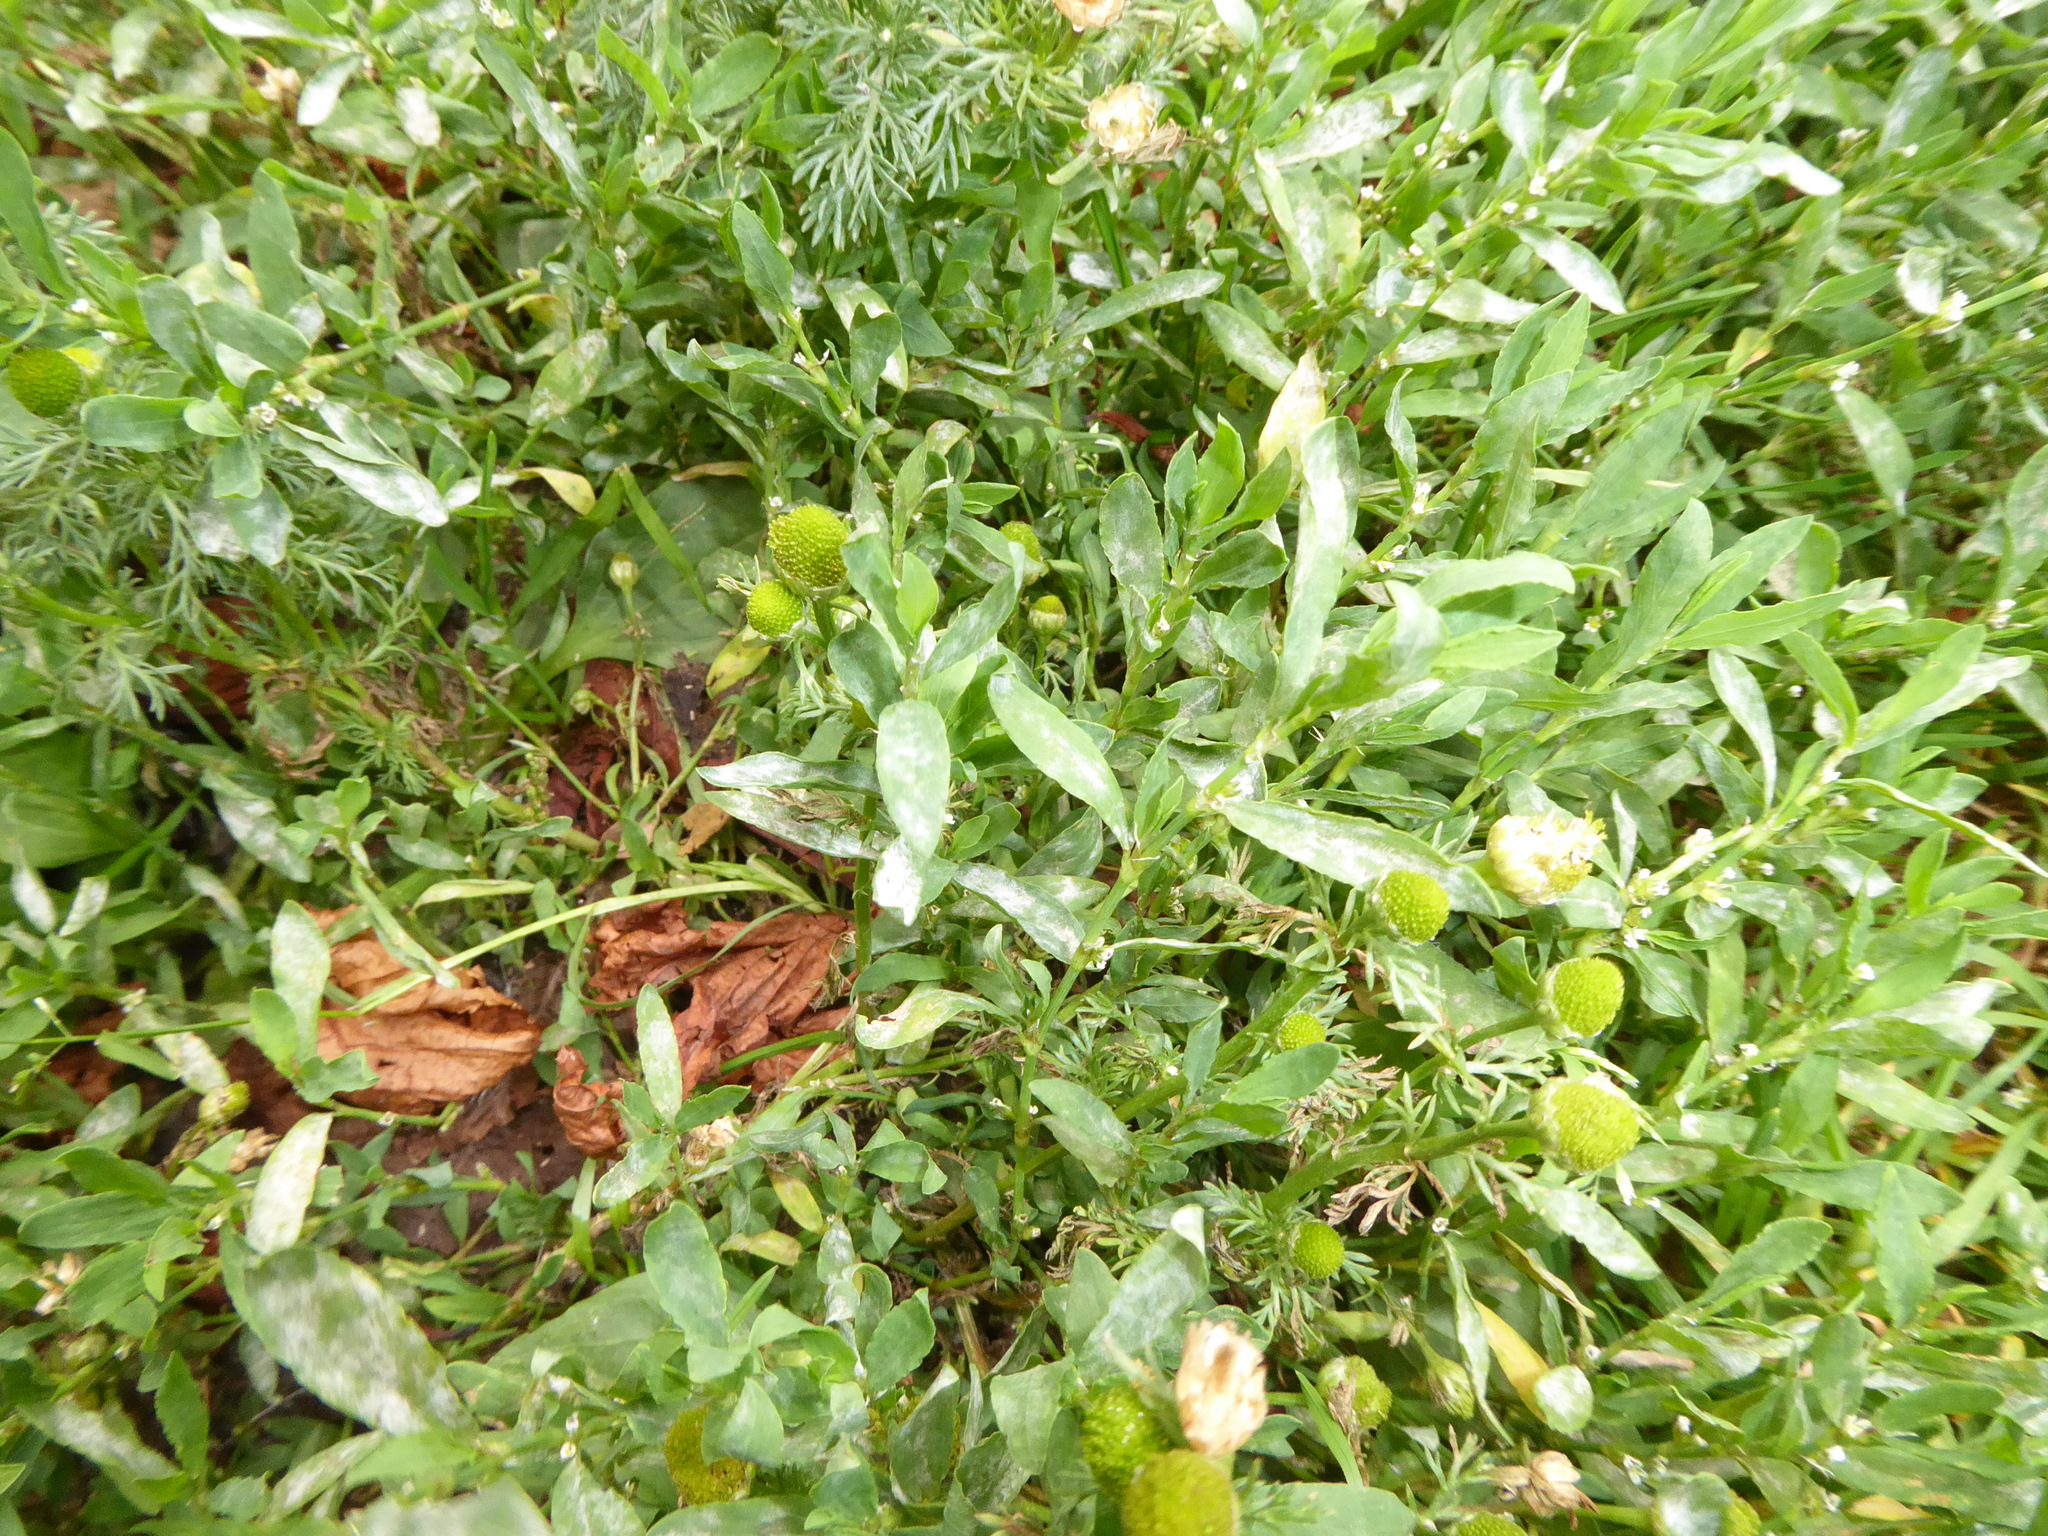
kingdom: Fungi
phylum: Ascomycota
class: Leotiomycetes
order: Helotiales
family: Erysiphaceae
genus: Erysiphe
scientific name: Erysiphe polygoni
